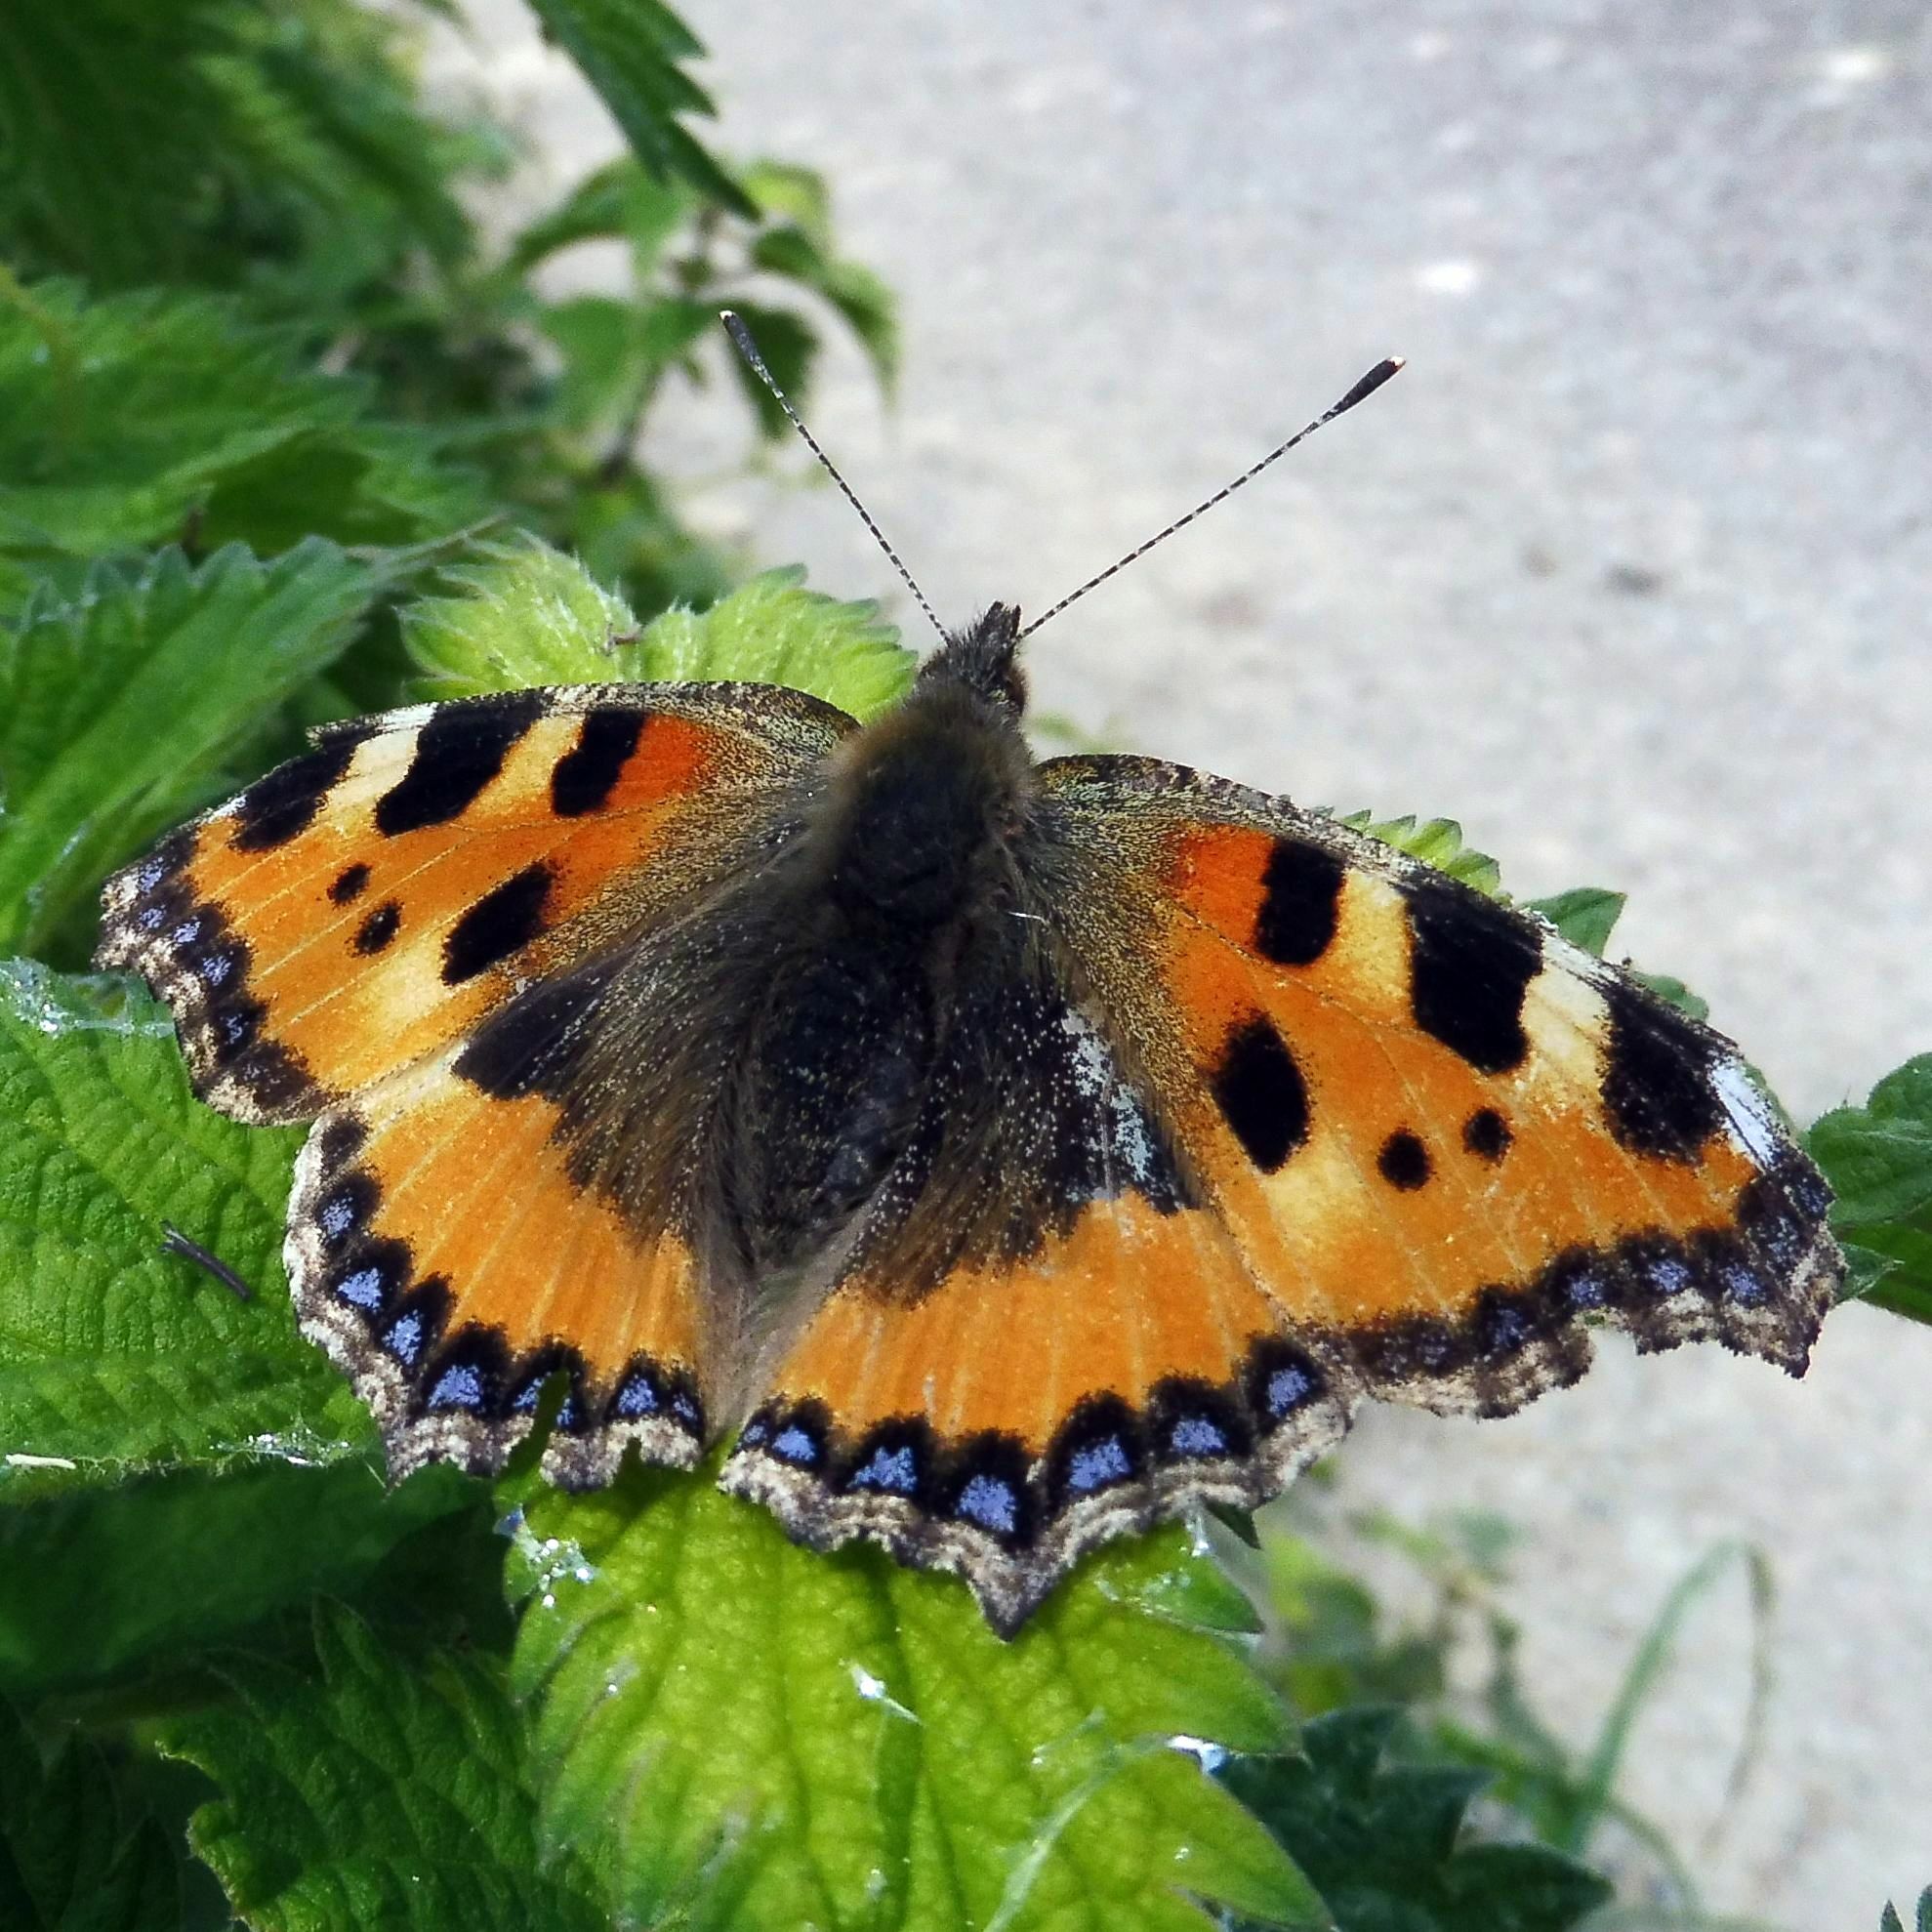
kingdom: Animalia
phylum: Arthropoda
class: Insecta
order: Lepidoptera
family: Nymphalidae
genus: Aglais
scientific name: Aglais urticae
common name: Small tortoiseshell
